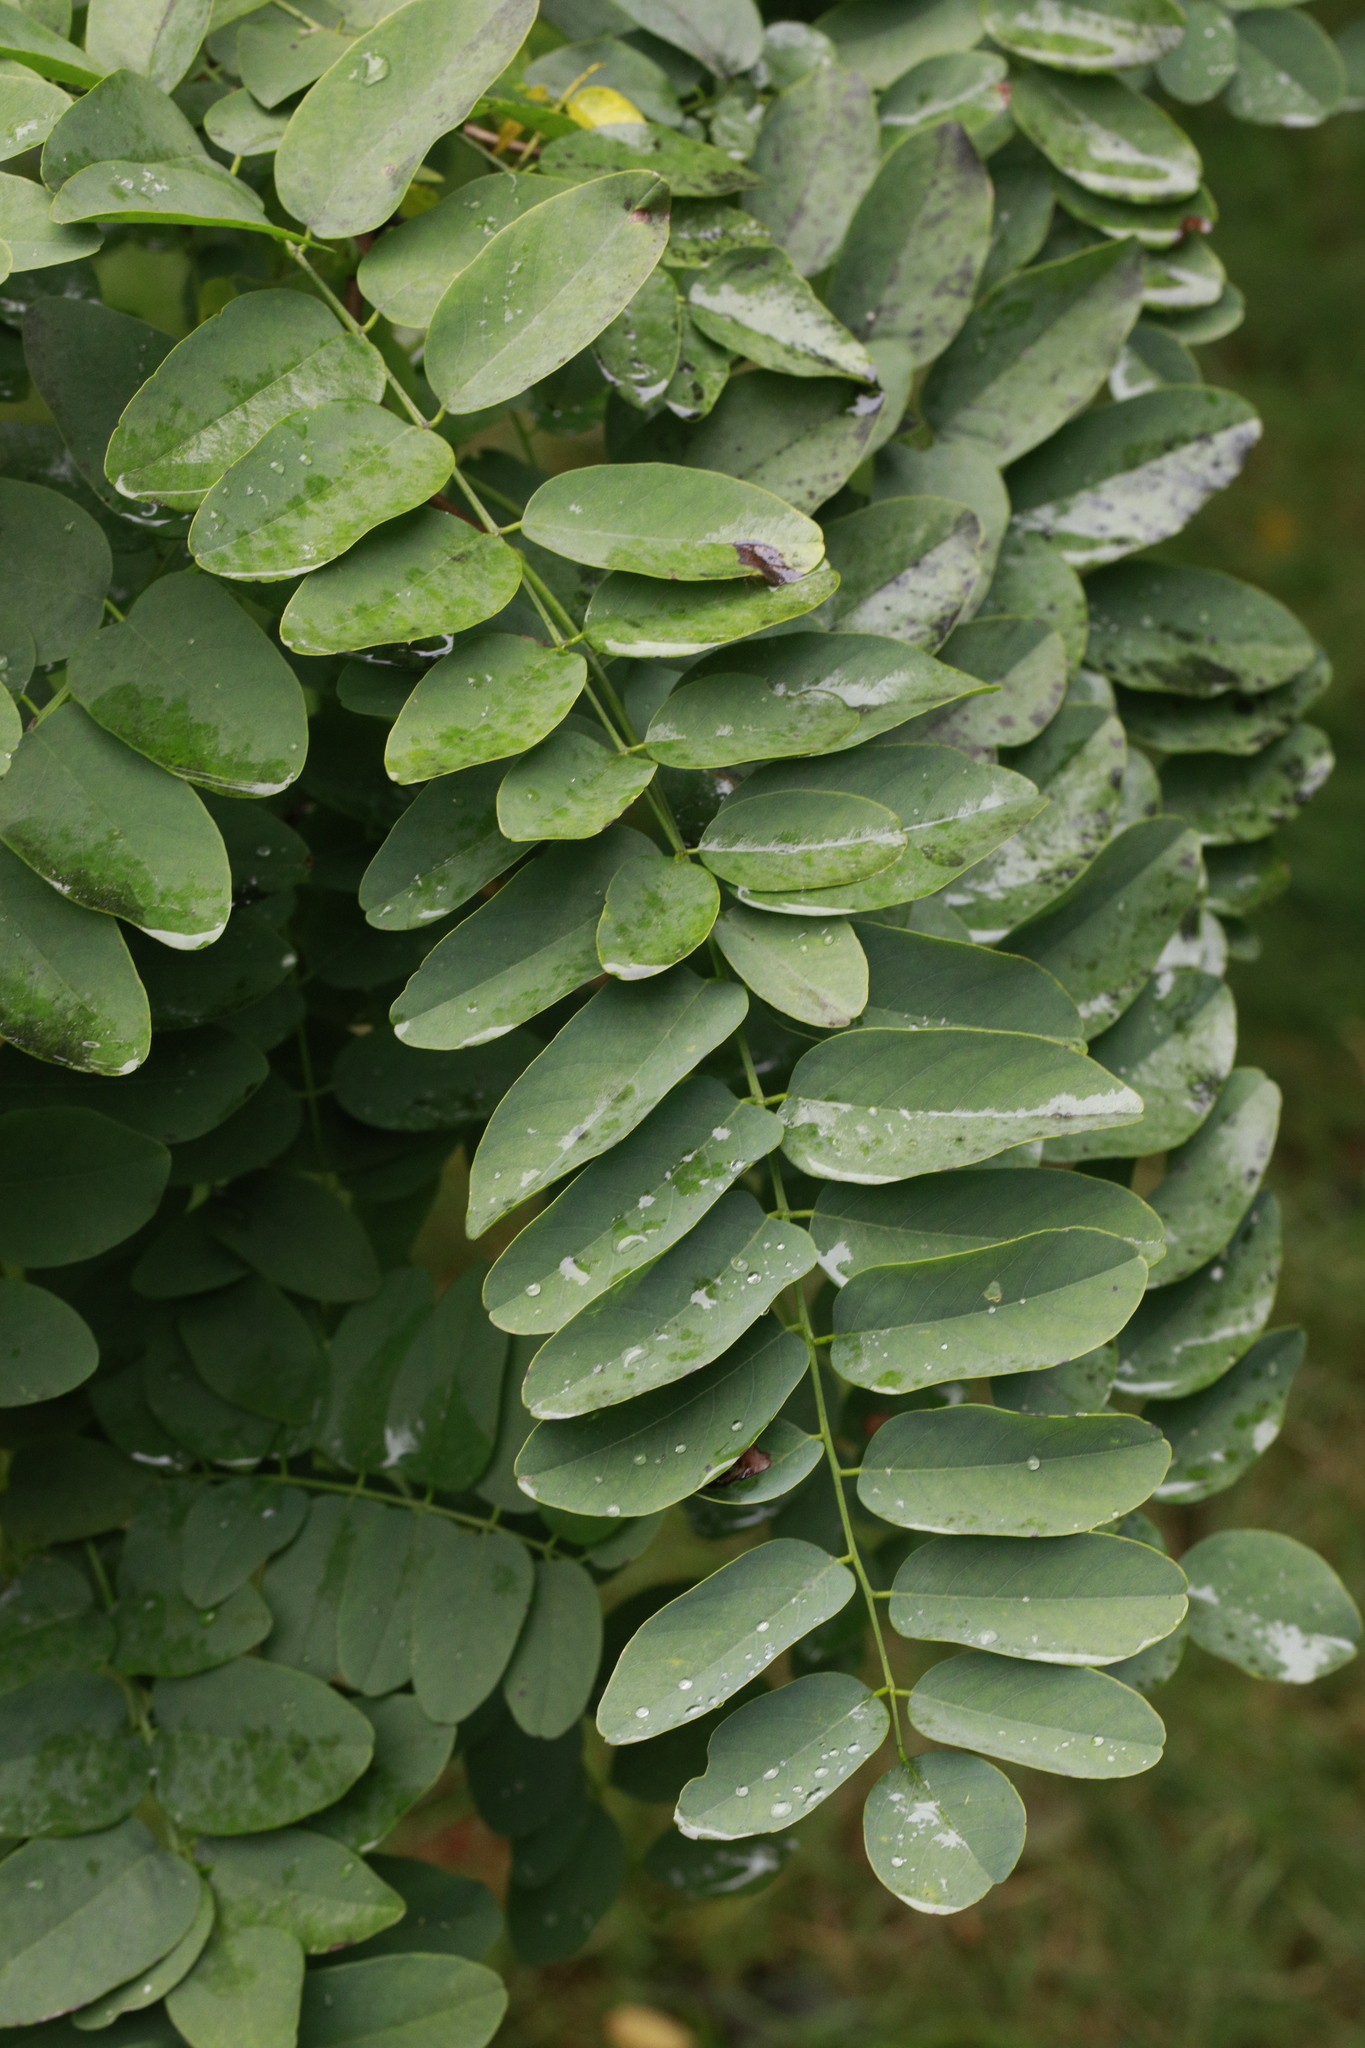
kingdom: Plantae
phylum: Tracheophyta
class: Magnoliopsida
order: Fabales
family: Fabaceae
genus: Robinia
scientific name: Robinia pseudoacacia
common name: Black locust
